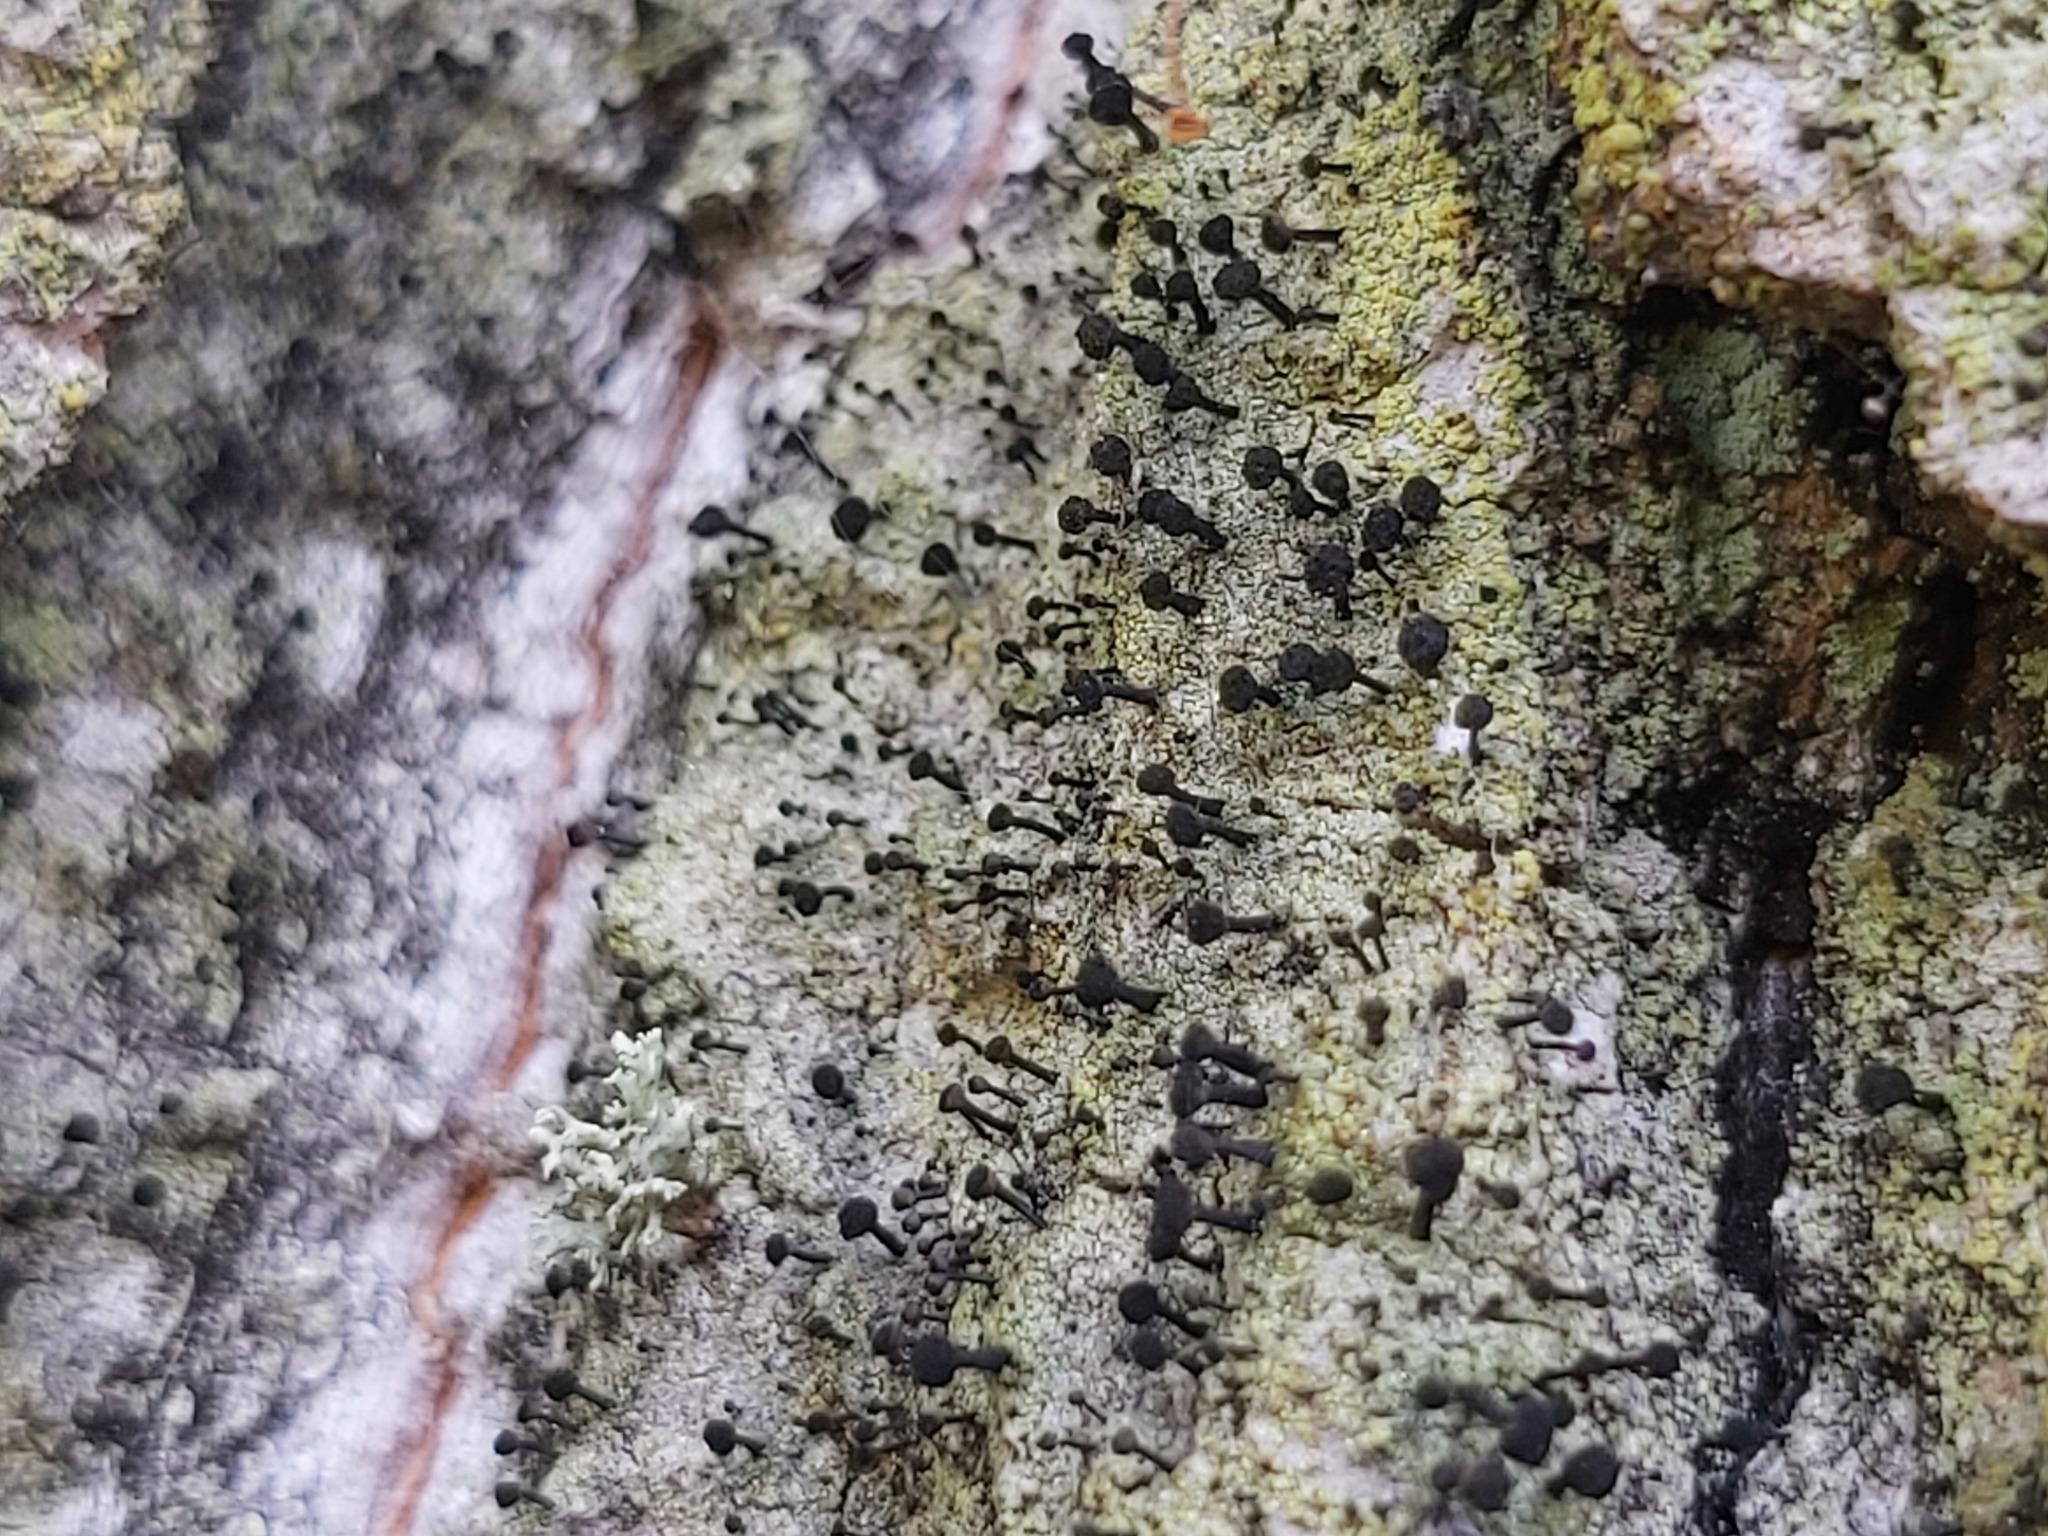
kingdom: Fungi
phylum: Ascomycota
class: Lecanoromycetes
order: Caliciales
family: Caliciaceae
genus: Calicium
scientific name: Calicium viride
